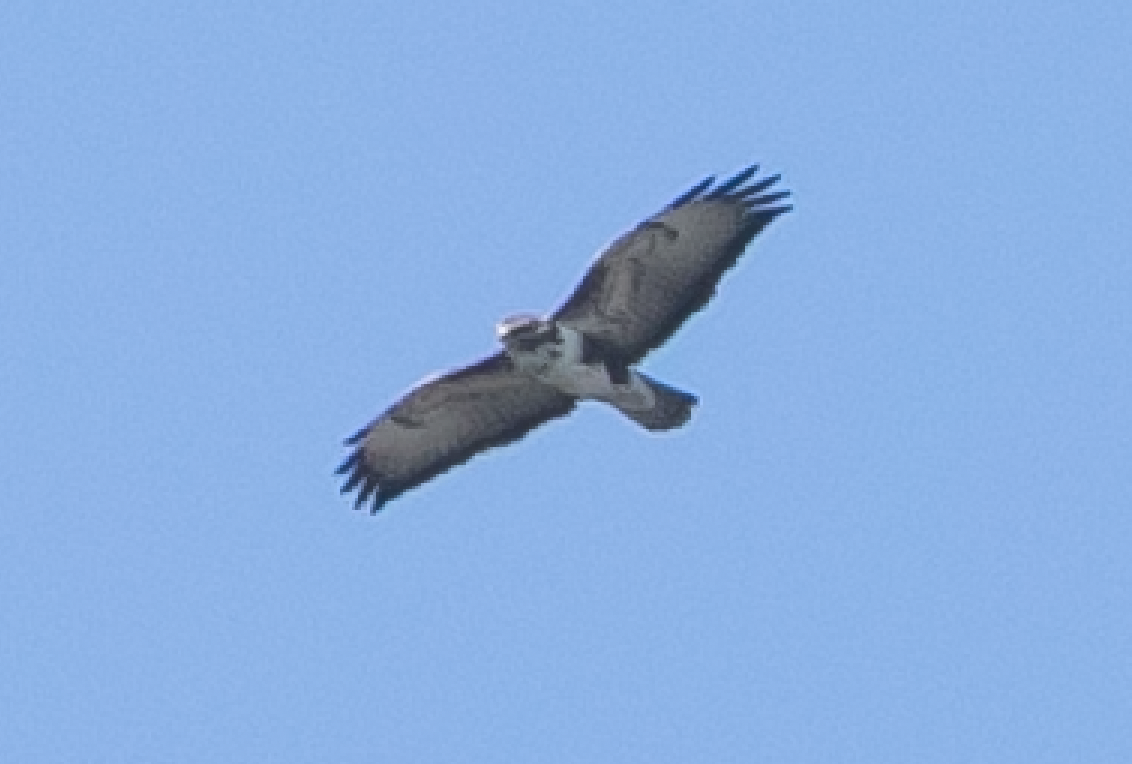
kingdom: Animalia
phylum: Chordata
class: Aves
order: Accipitriformes
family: Accipitridae
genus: Buteo
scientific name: Buteo buteo
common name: Common buzzard
